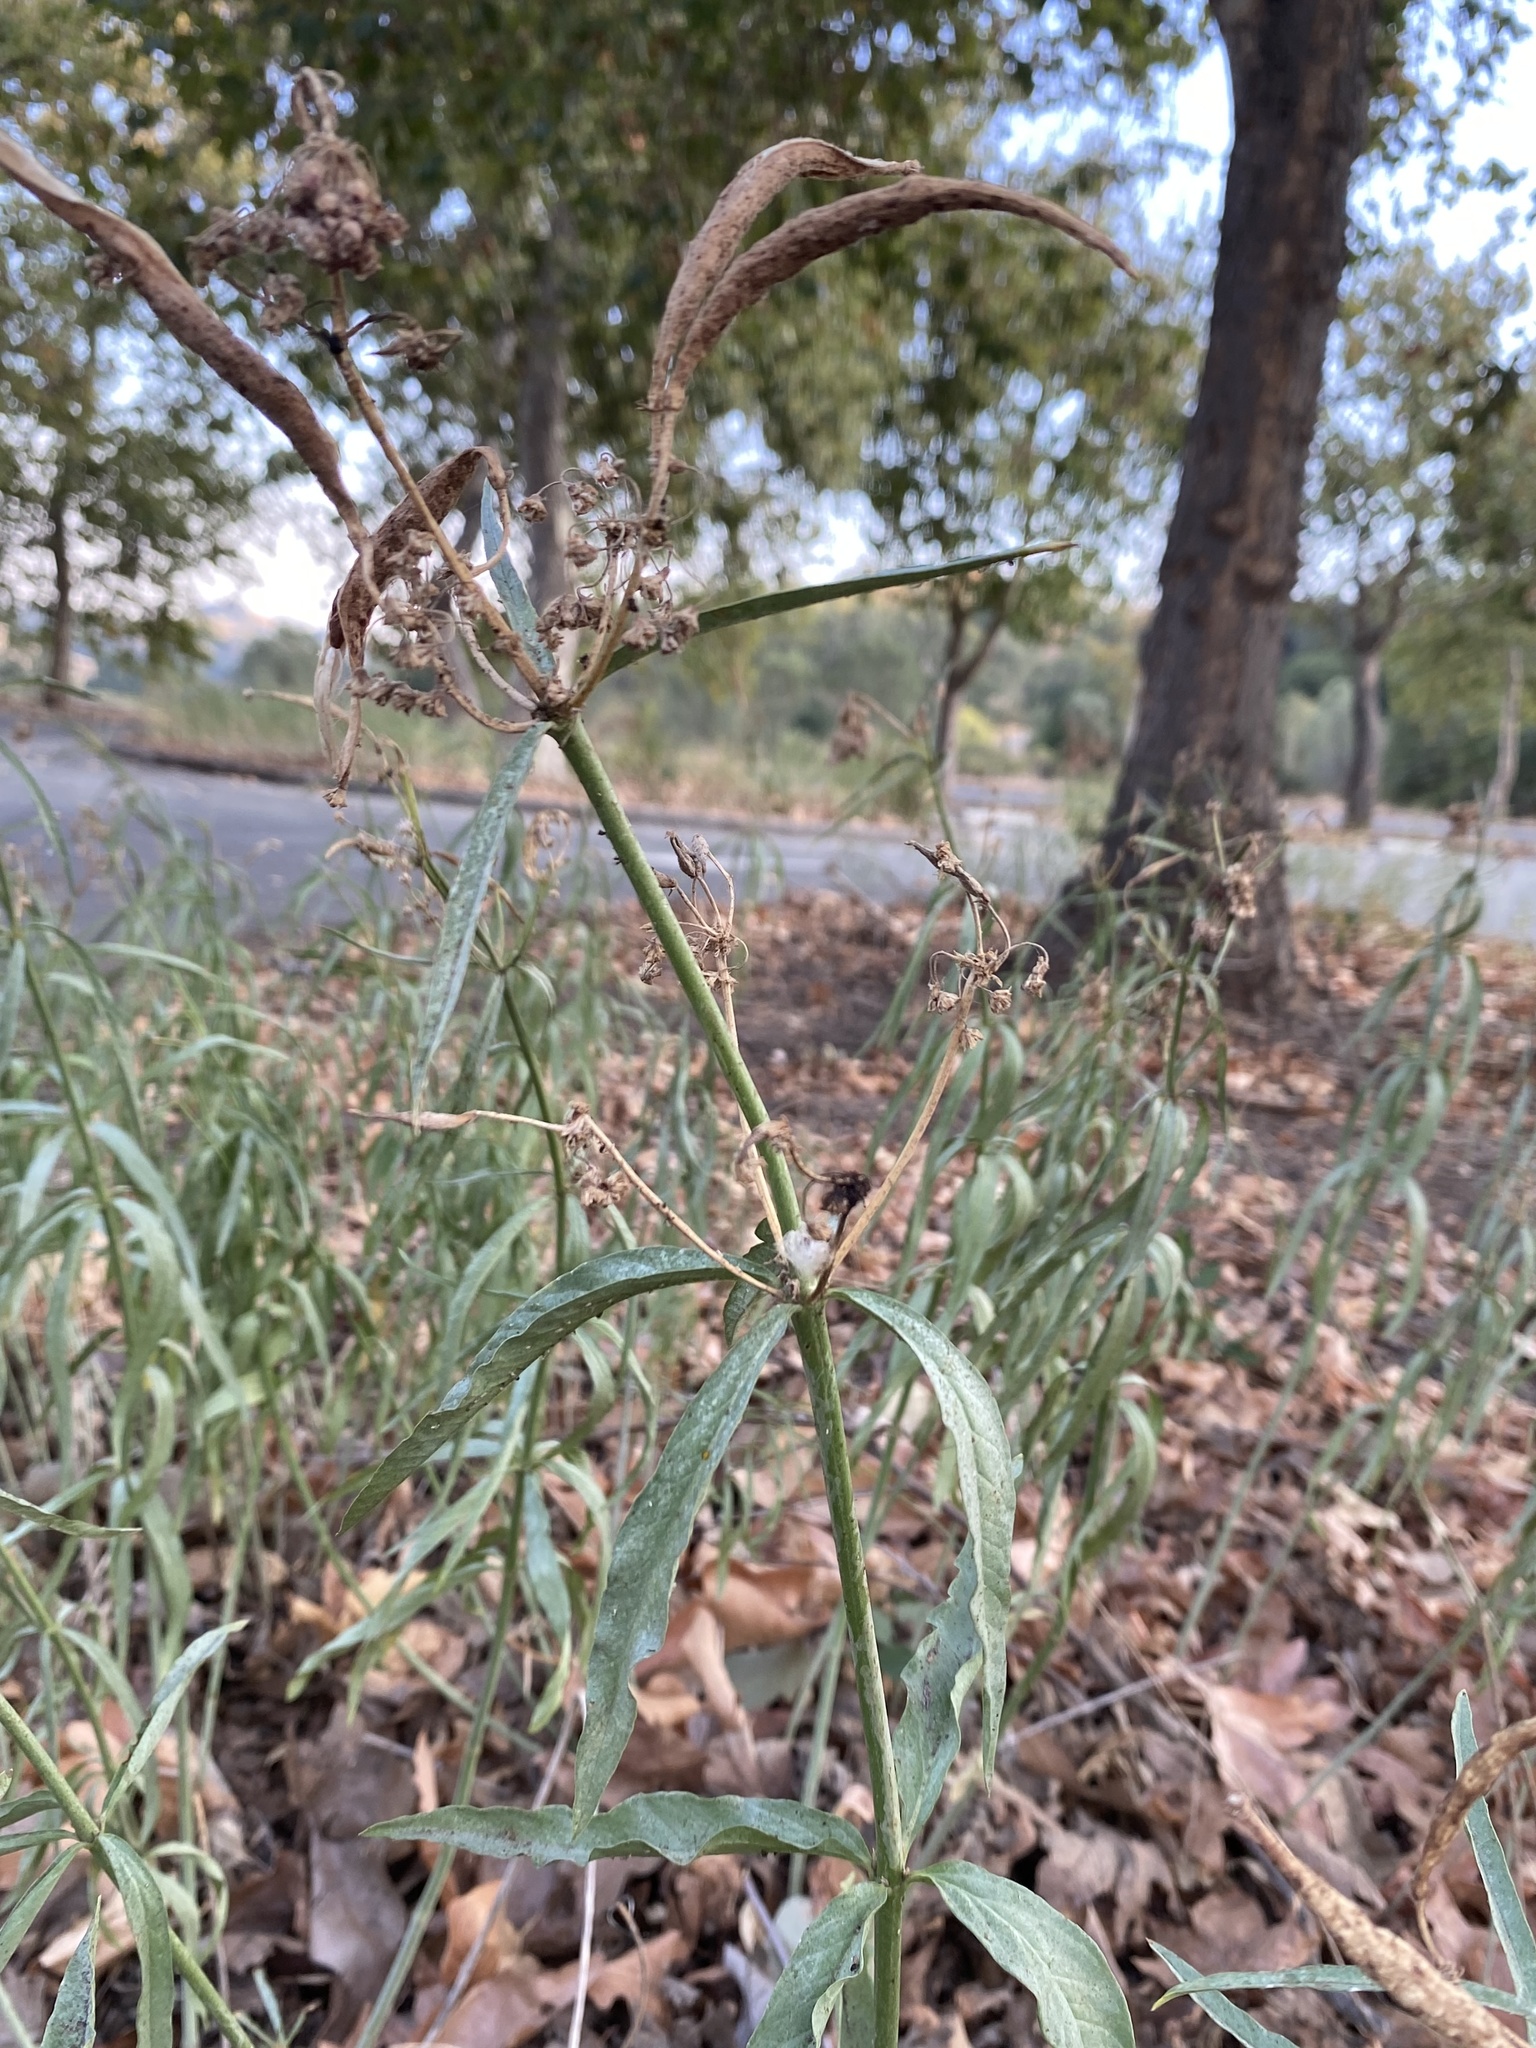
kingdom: Plantae
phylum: Tracheophyta
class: Magnoliopsida
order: Gentianales
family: Apocynaceae
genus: Asclepias
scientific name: Asclepias fascicularis
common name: Mexican milkweed
